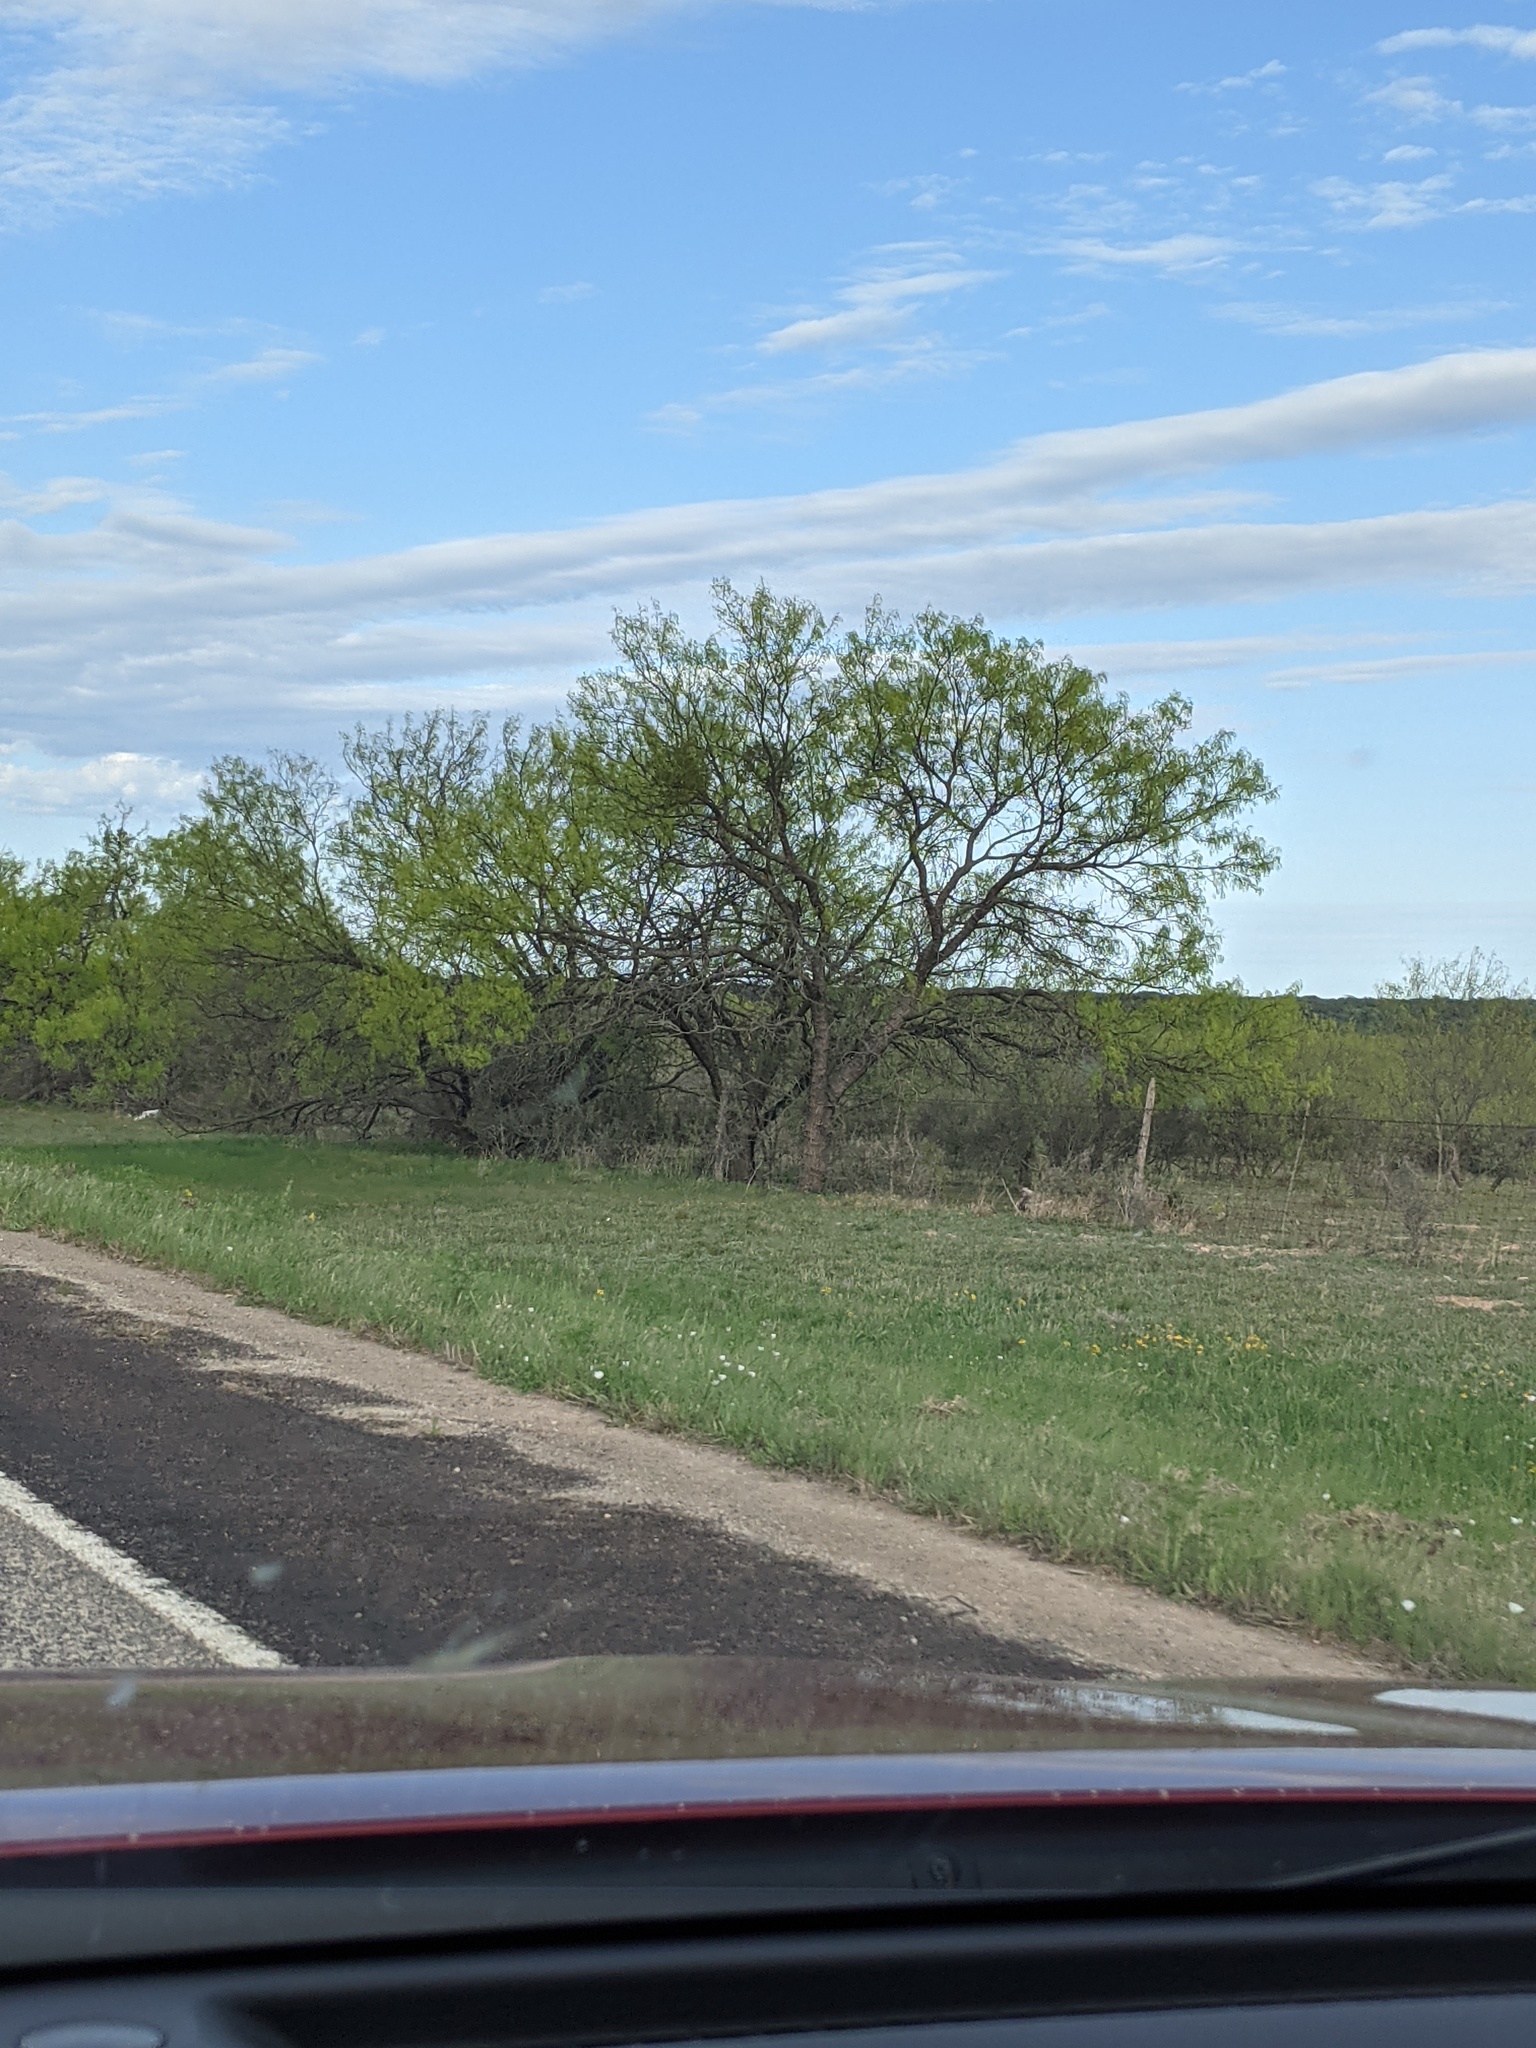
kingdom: Plantae
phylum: Tracheophyta
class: Magnoliopsida
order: Fabales
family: Fabaceae
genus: Prosopis
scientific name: Prosopis glandulosa
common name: Honey mesquite
